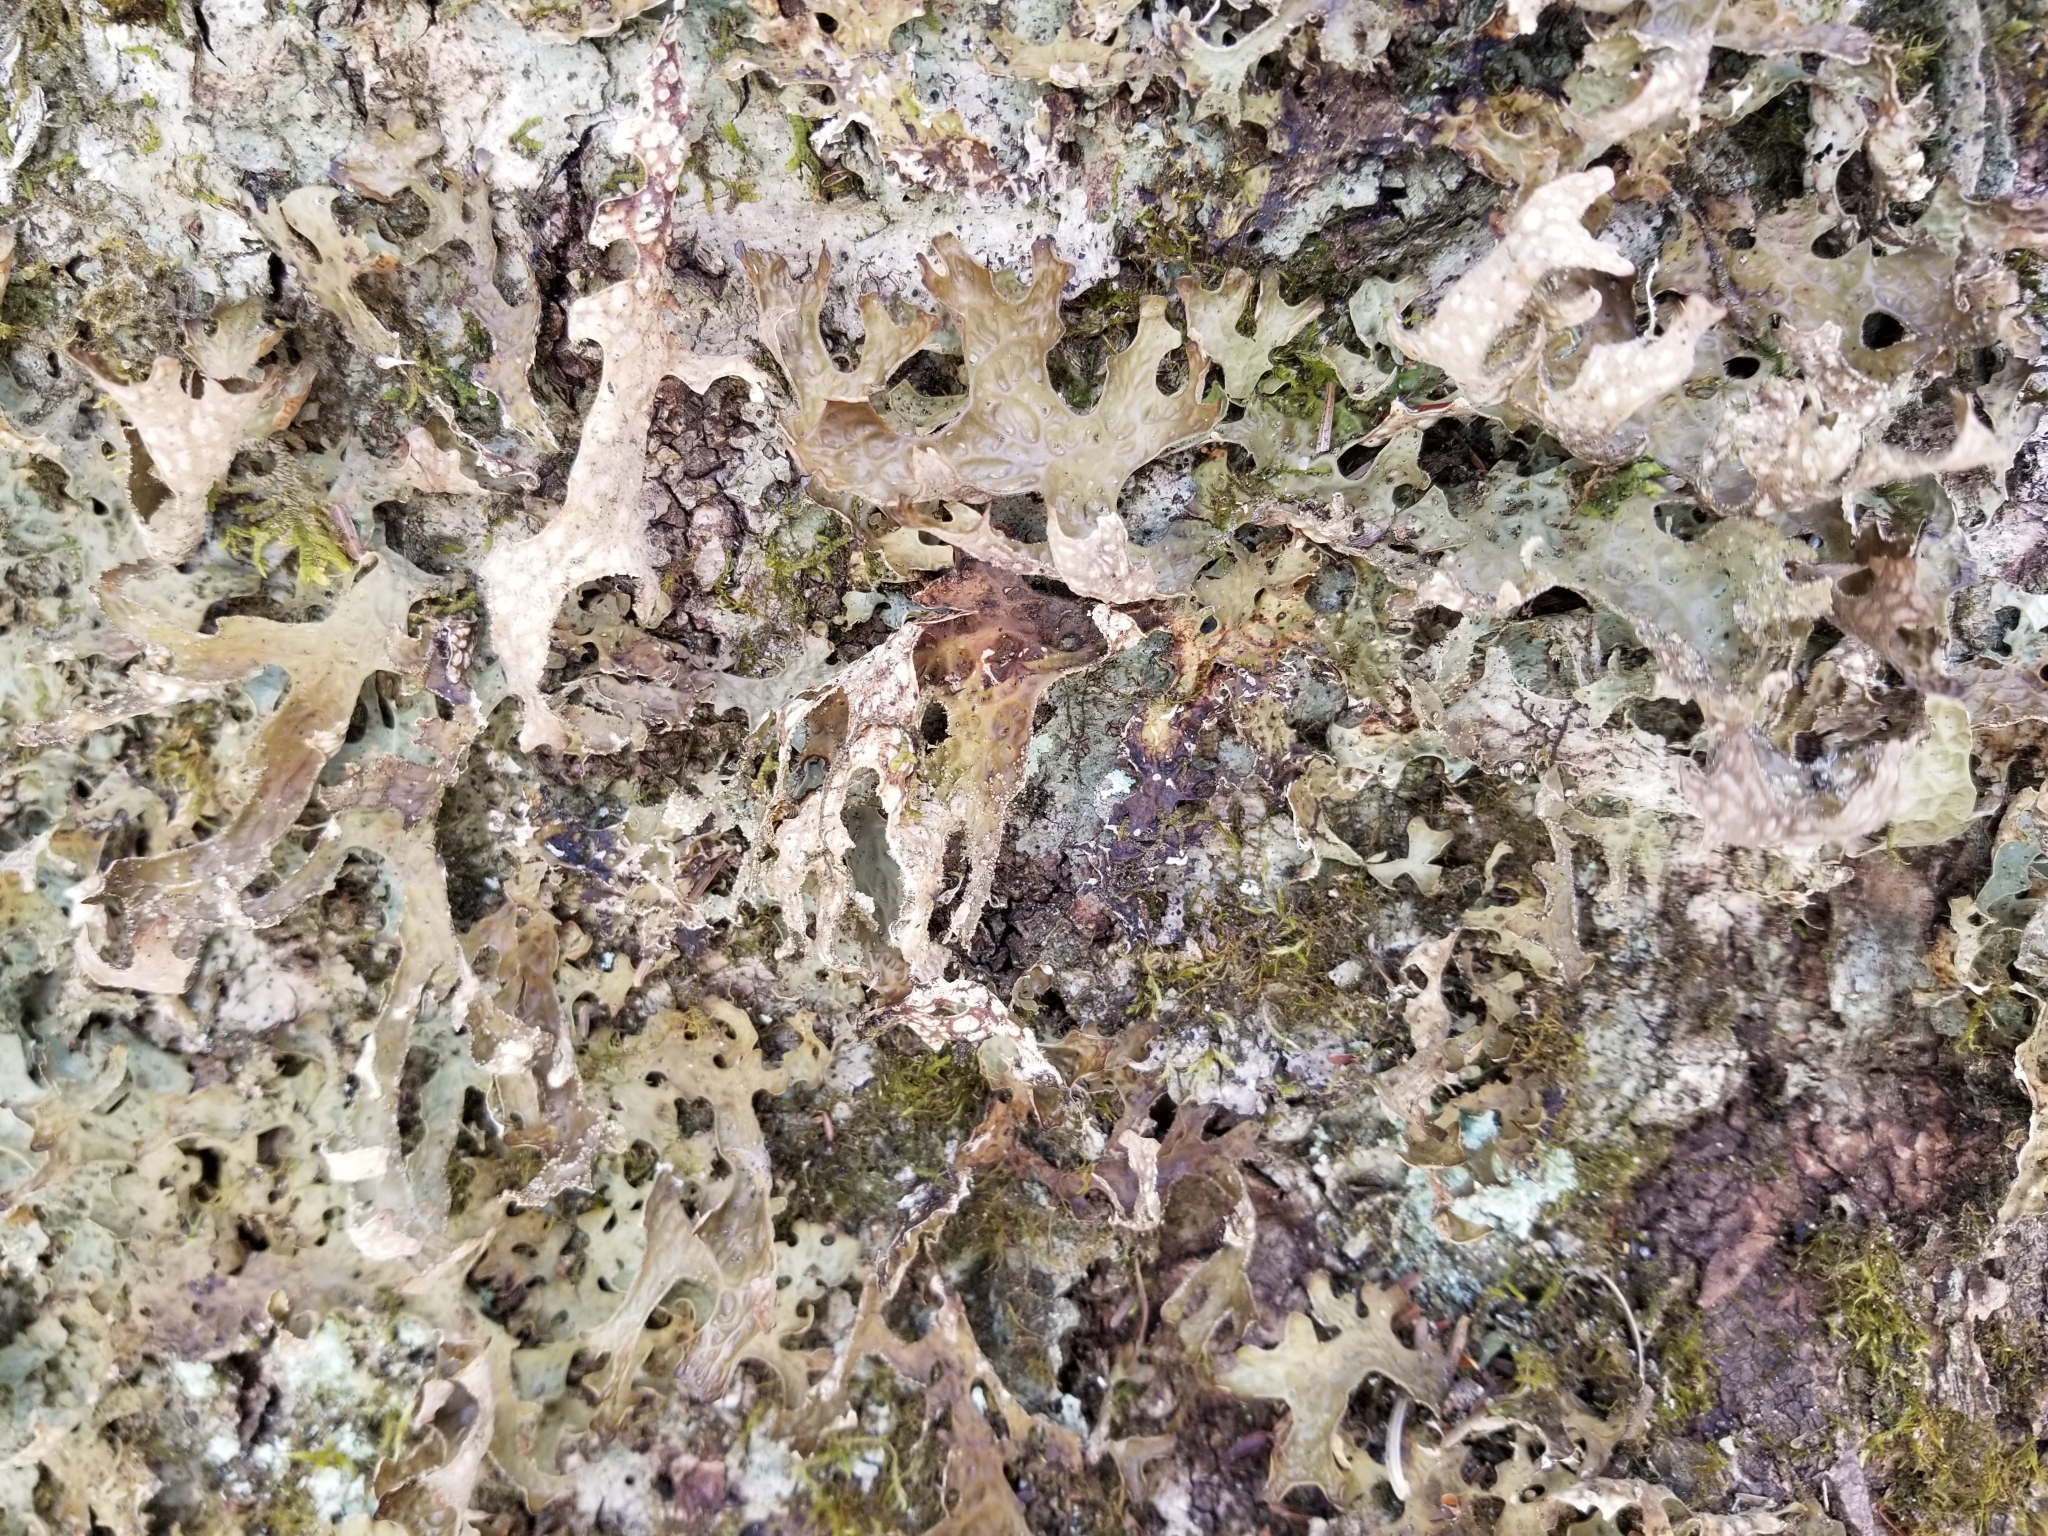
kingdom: Fungi
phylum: Ascomycota
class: Lecanoromycetes
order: Peltigerales
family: Lobariaceae
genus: Lobaria
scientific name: Lobaria pulmonaria
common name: Lungwort
